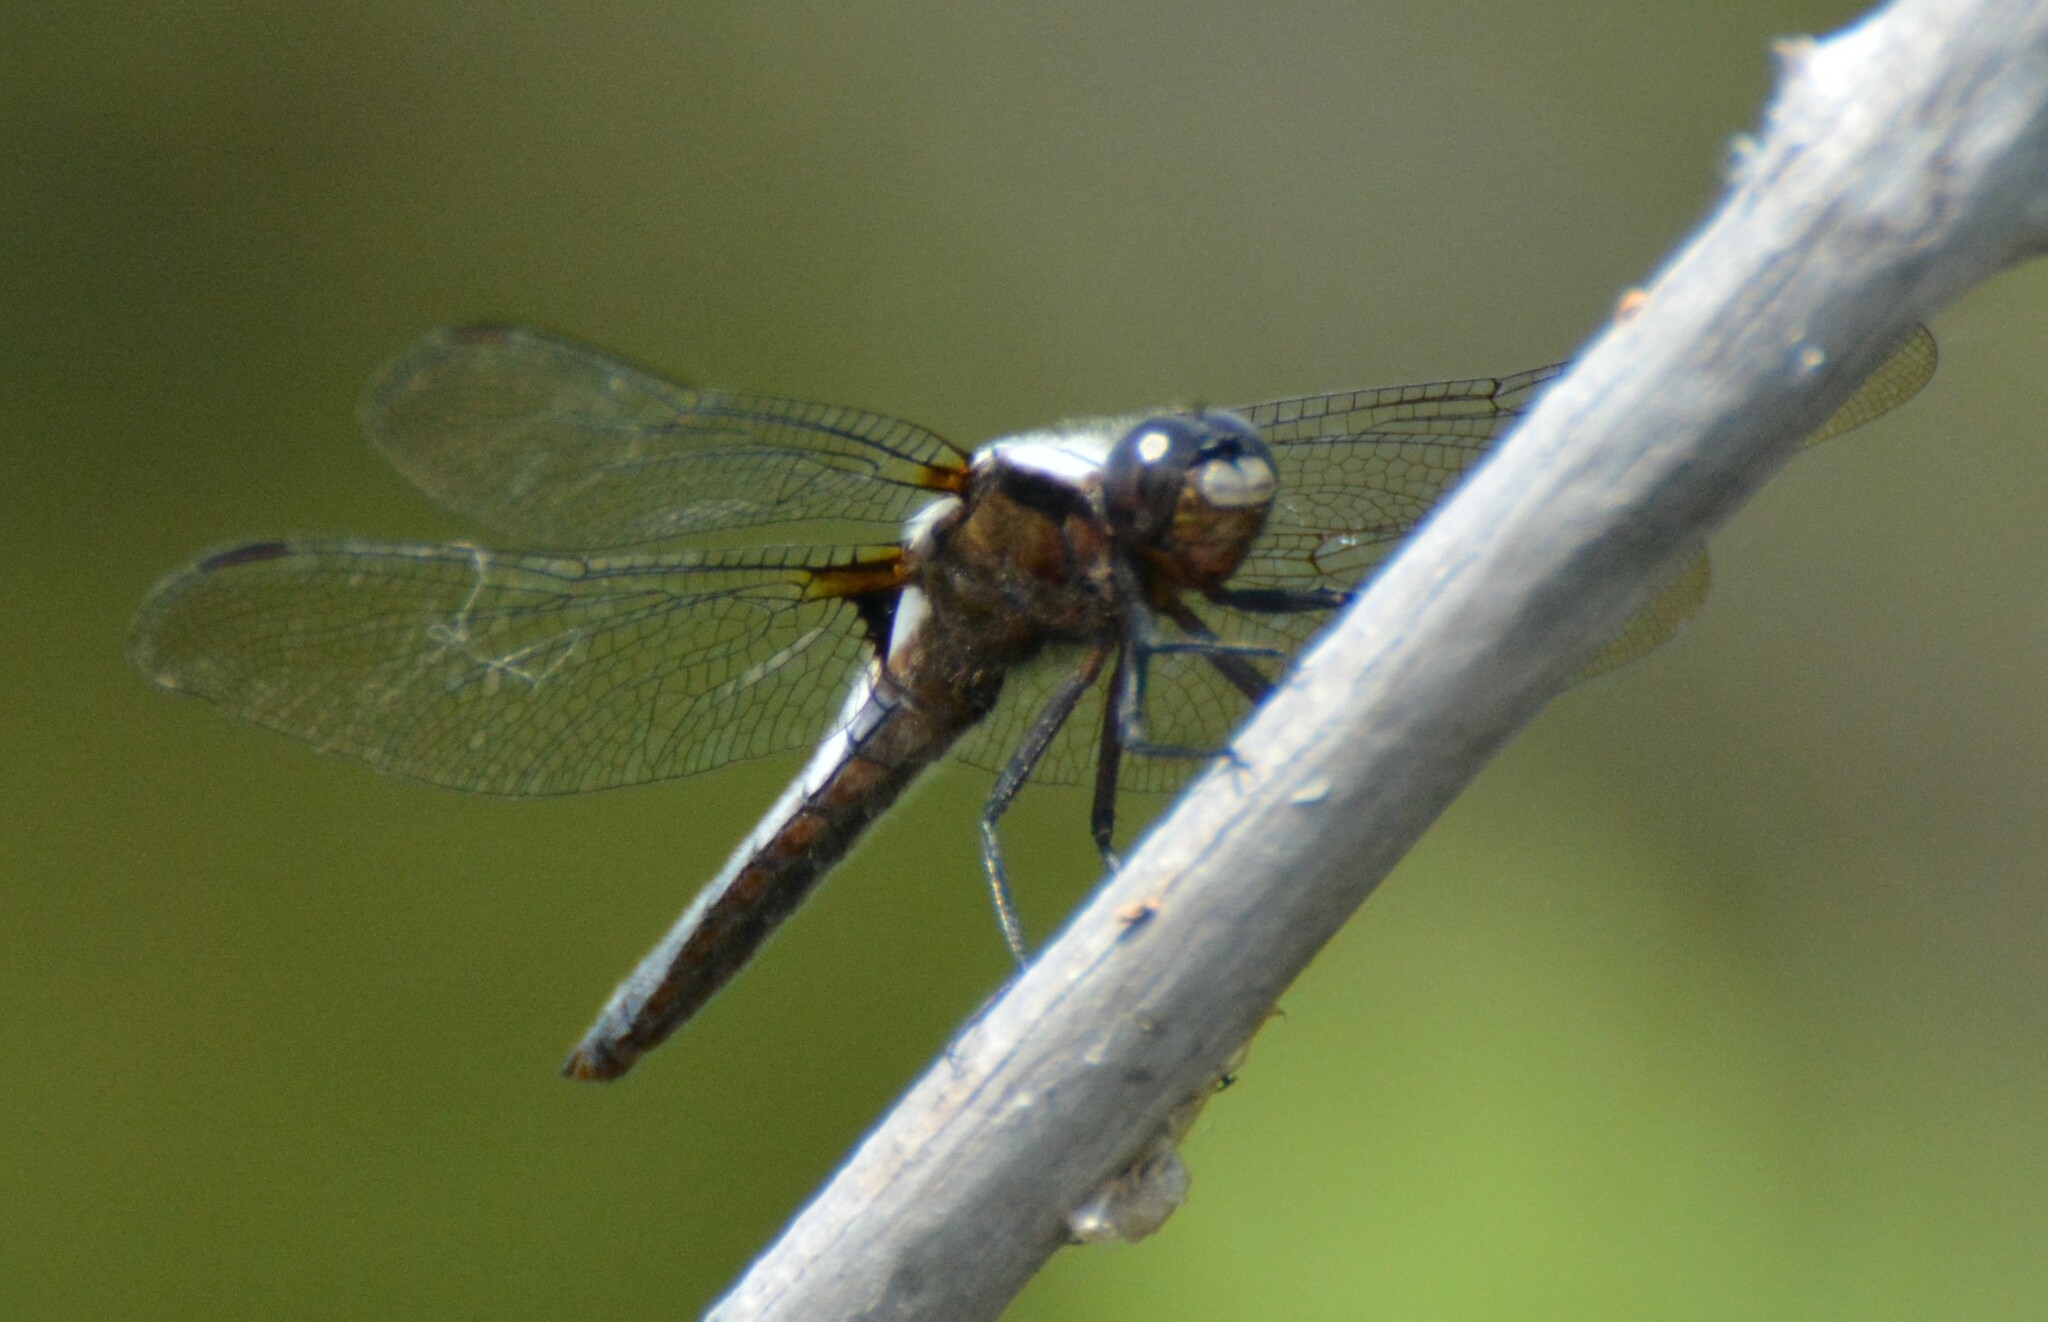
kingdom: Animalia
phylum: Arthropoda
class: Insecta
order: Odonata
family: Libellulidae
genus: Ladona
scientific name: Ladona julia
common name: Chalk-fronted corporal
